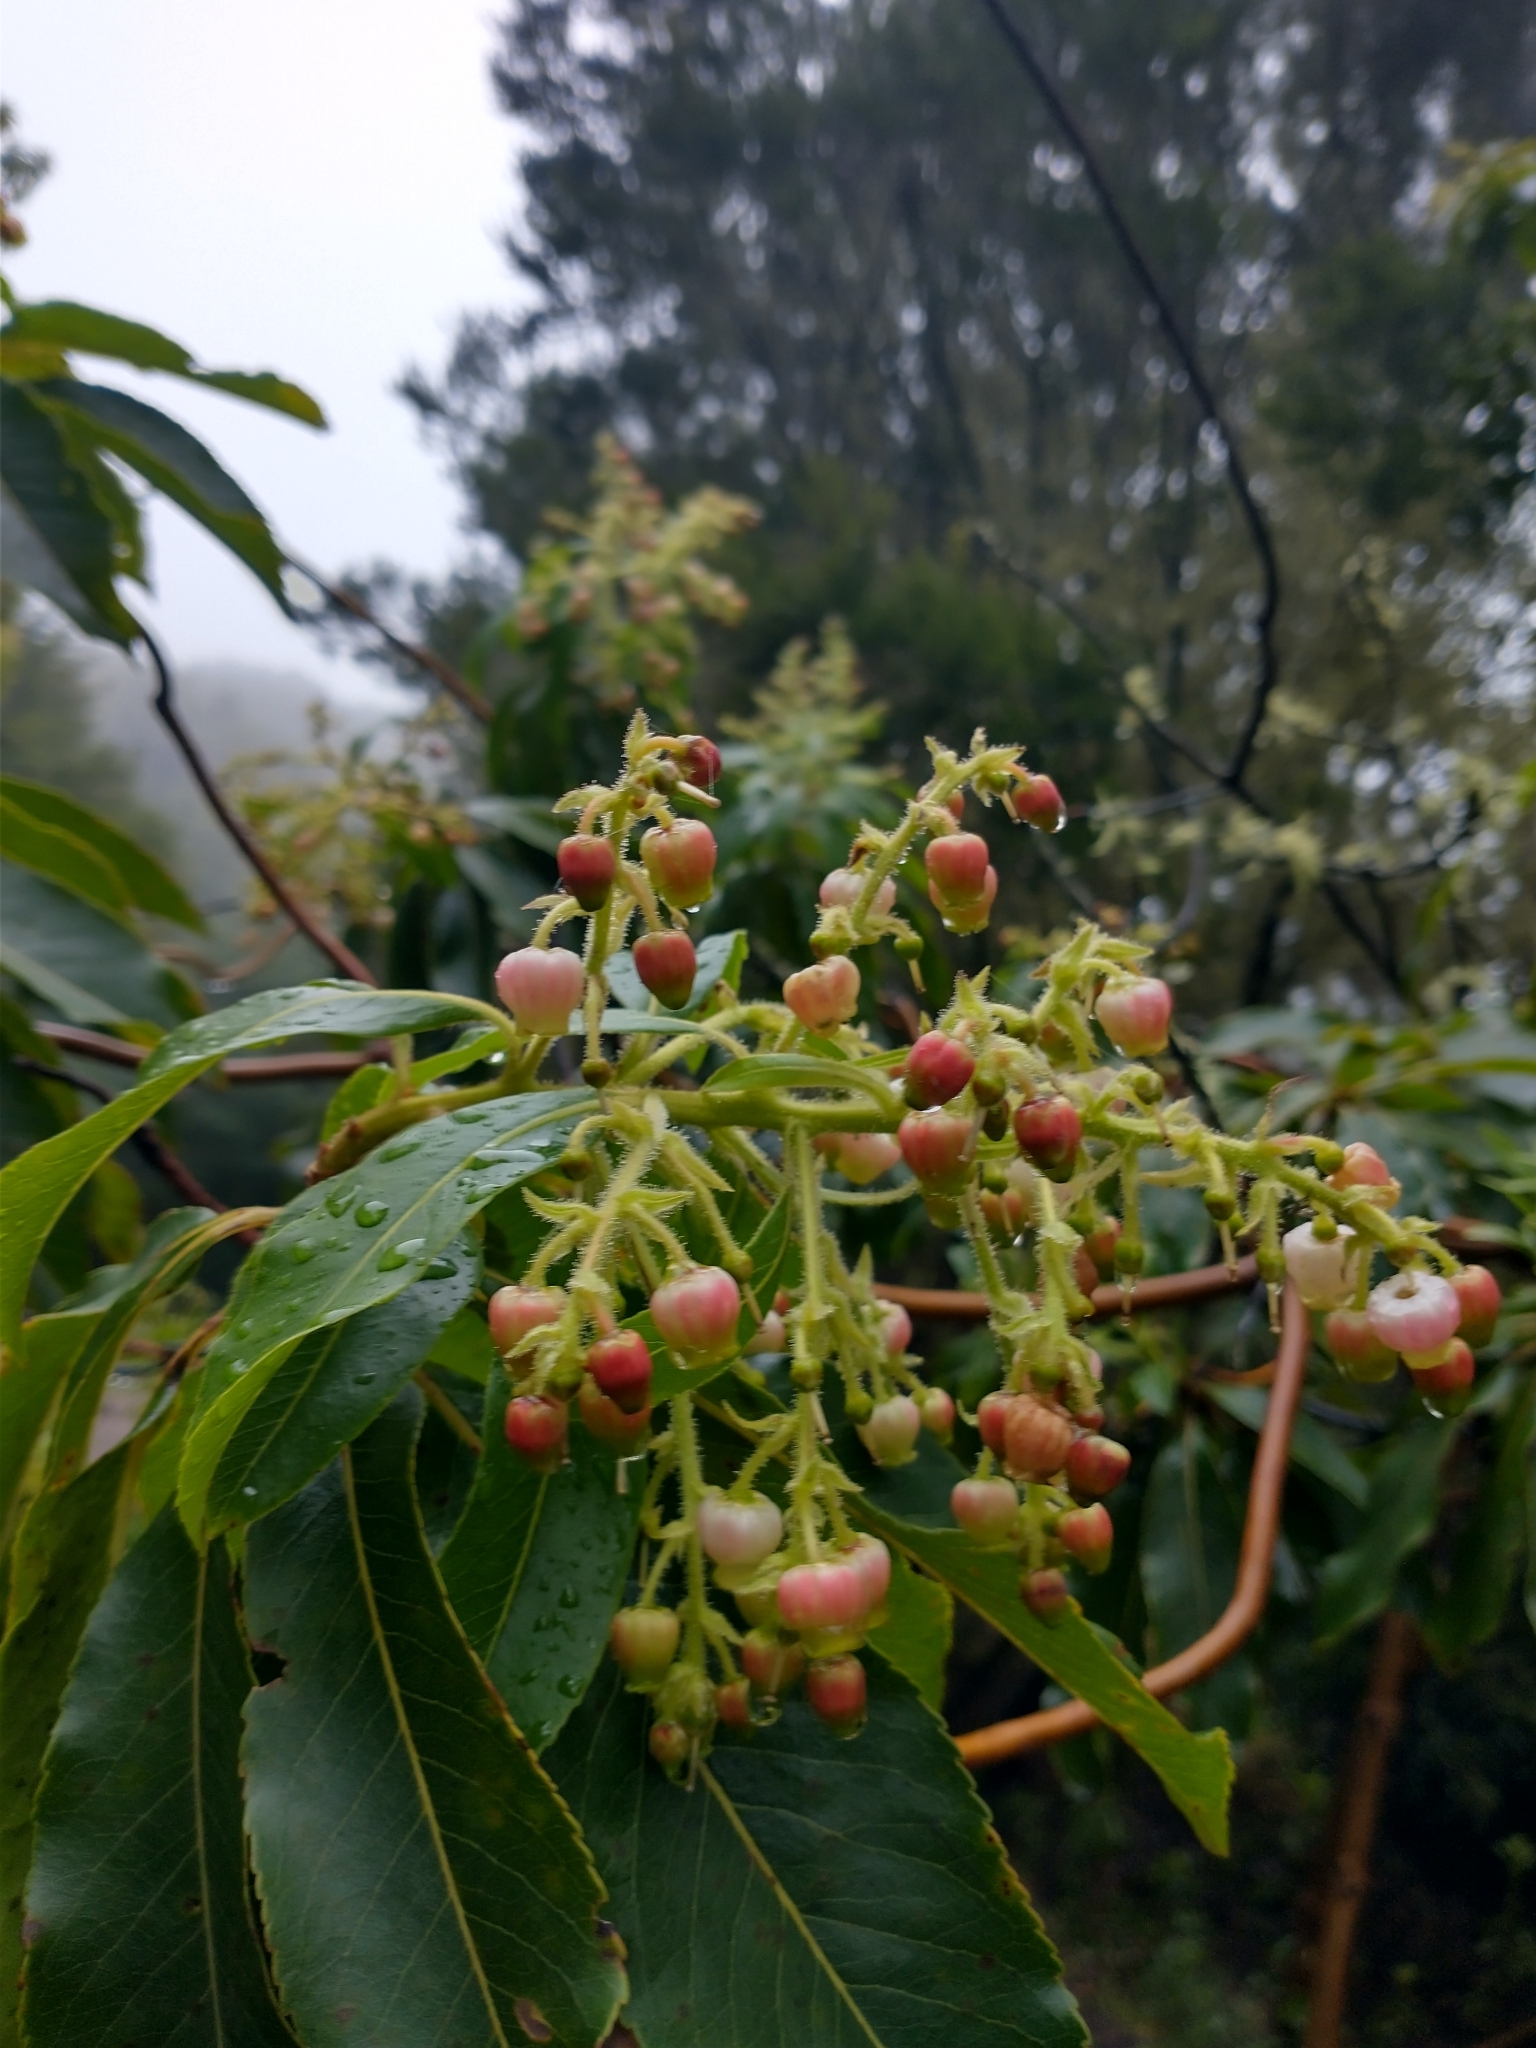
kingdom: Plantae
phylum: Tracheophyta
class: Magnoliopsida
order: Ericales
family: Ericaceae
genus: Arbutus
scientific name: Arbutus canariensis
